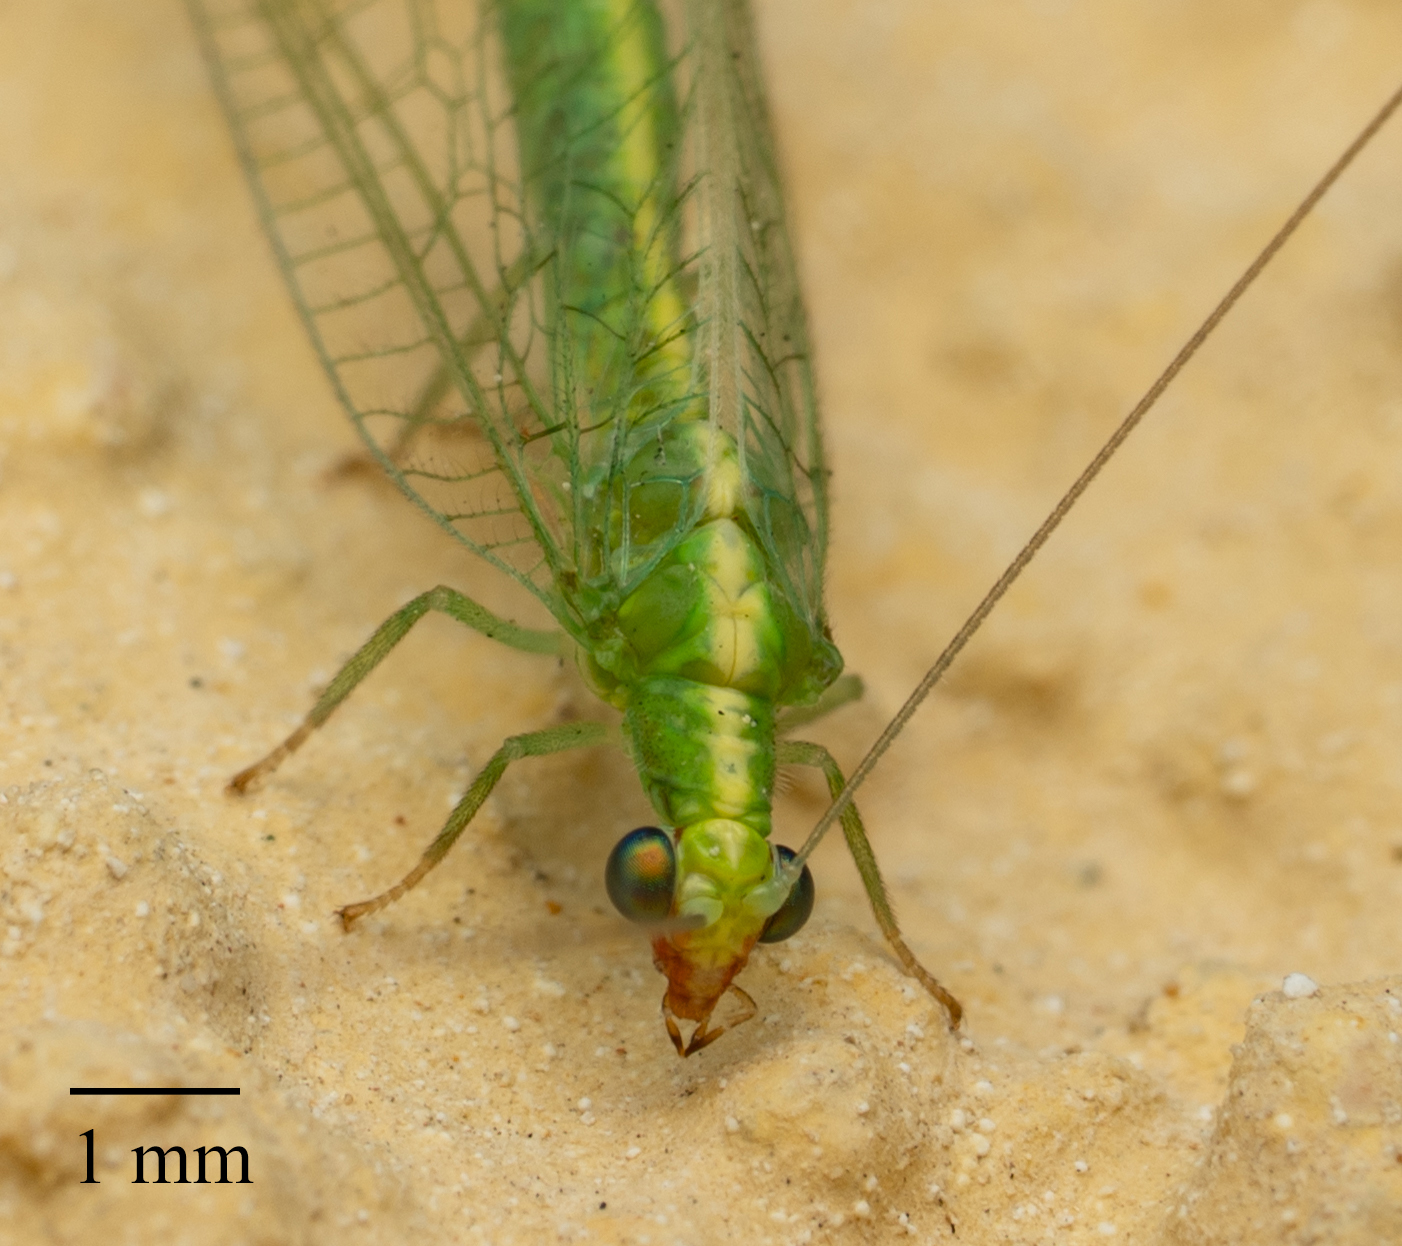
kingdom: Animalia
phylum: Arthropoda
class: Insecta
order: Neuroptera
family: Chrysopidae
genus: Chrysoperla
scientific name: Chrysoperla comanche
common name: Green lacewing
